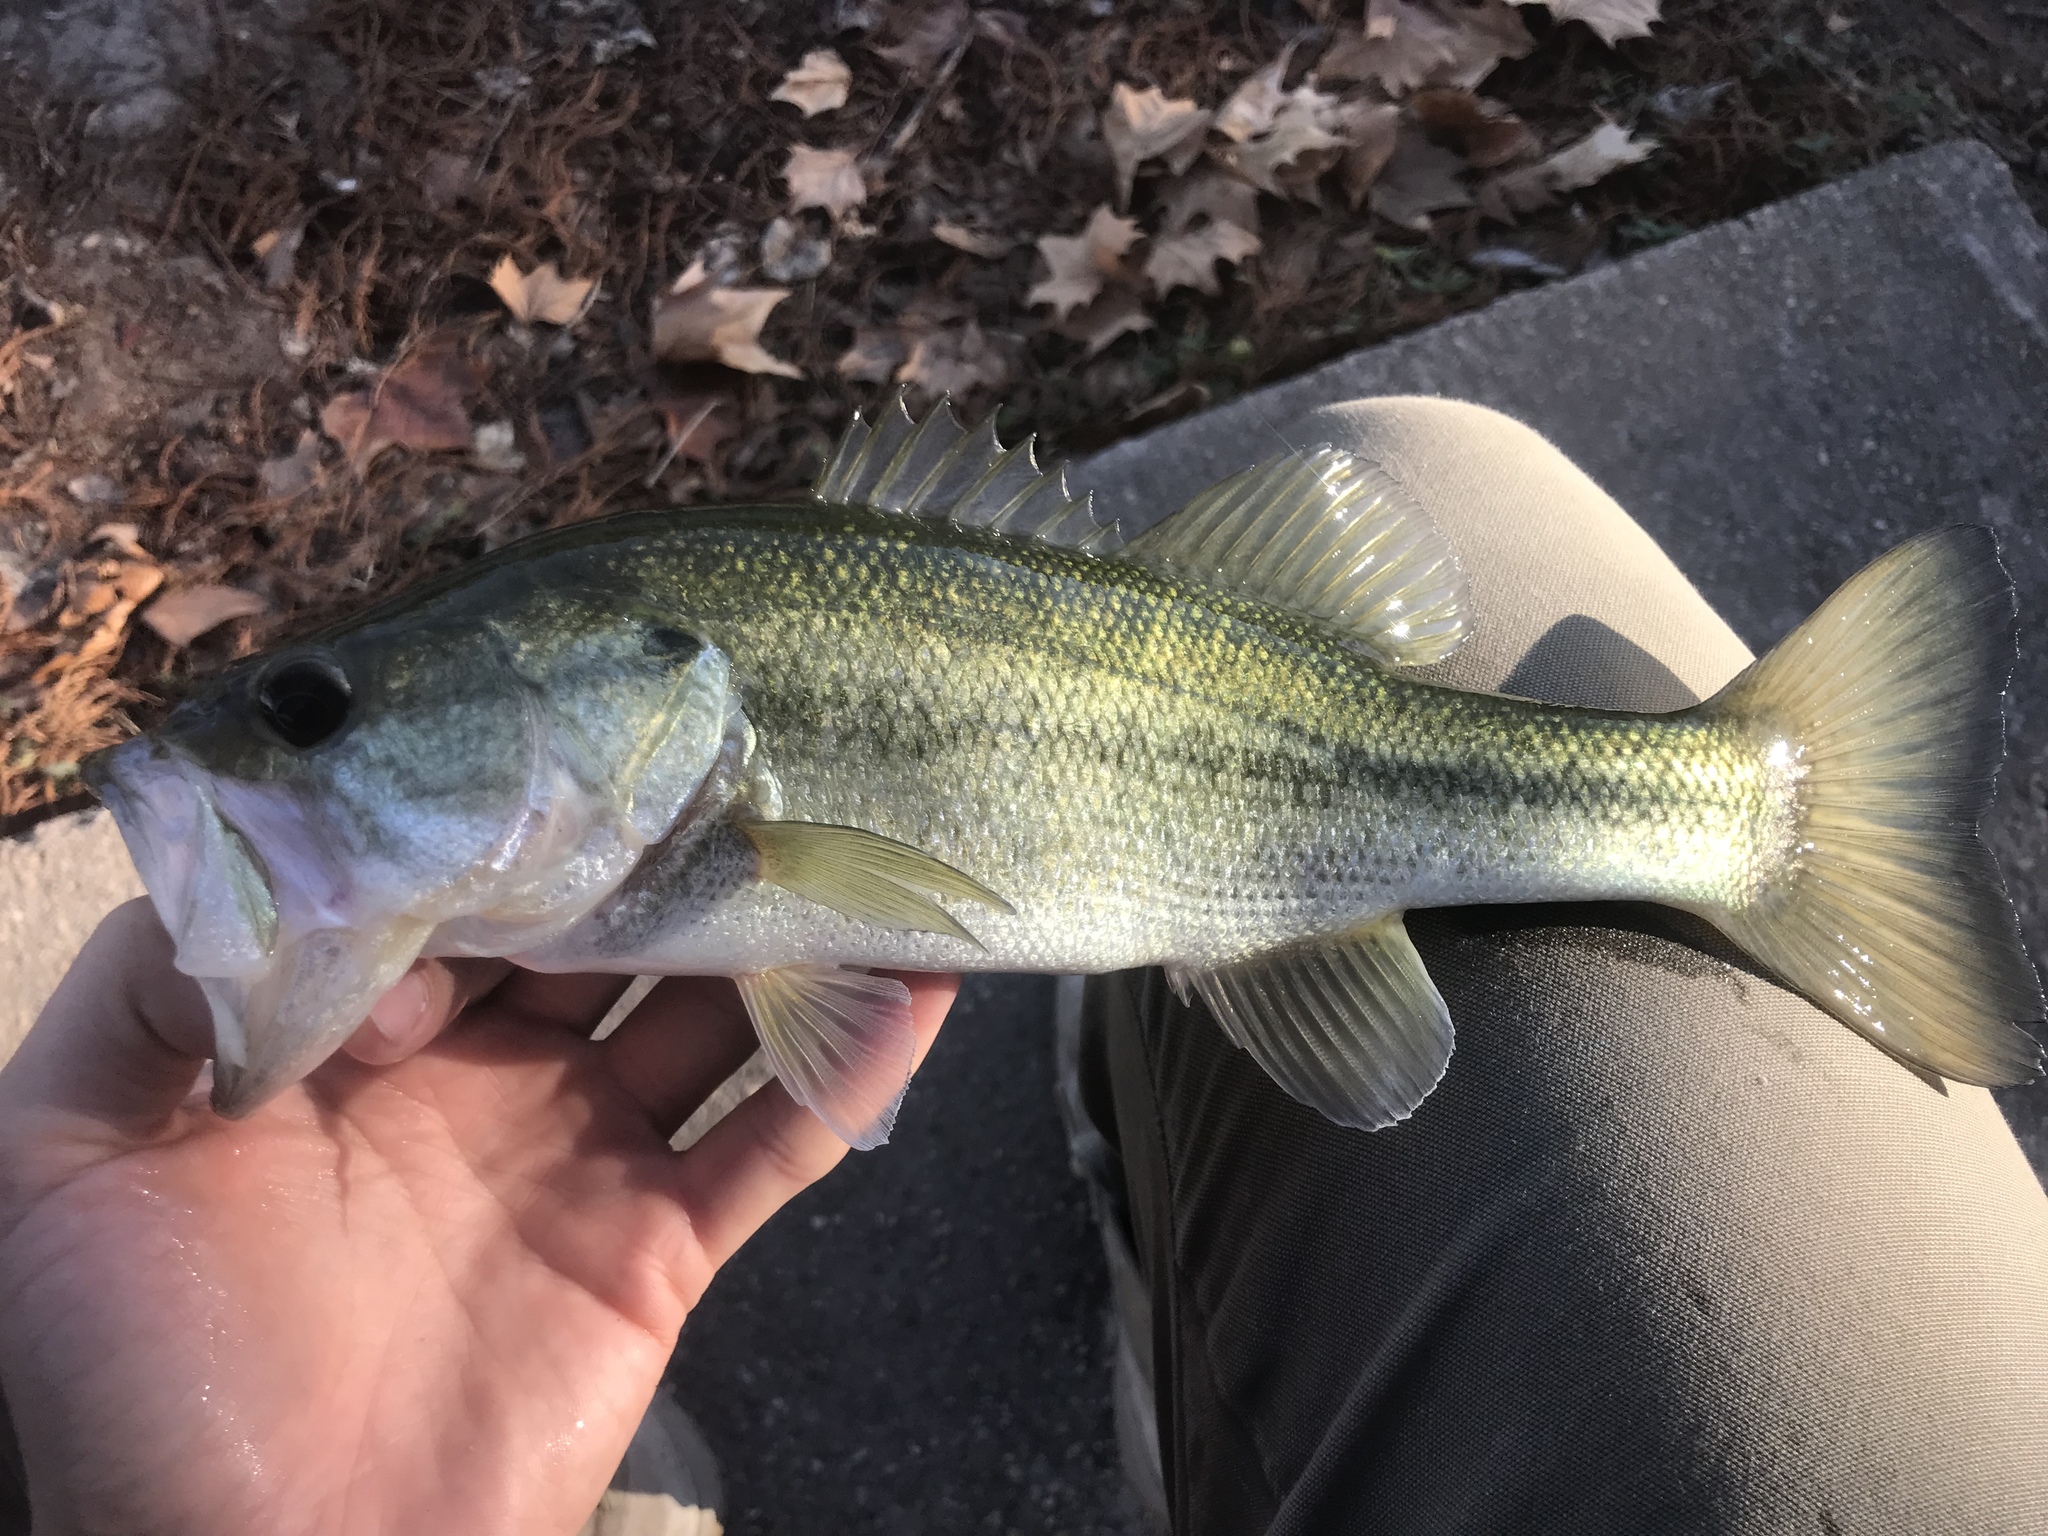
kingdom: Animalia
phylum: Chordata
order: Perciformes
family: Centrarchidae
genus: Micropterus
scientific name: Micropterus
